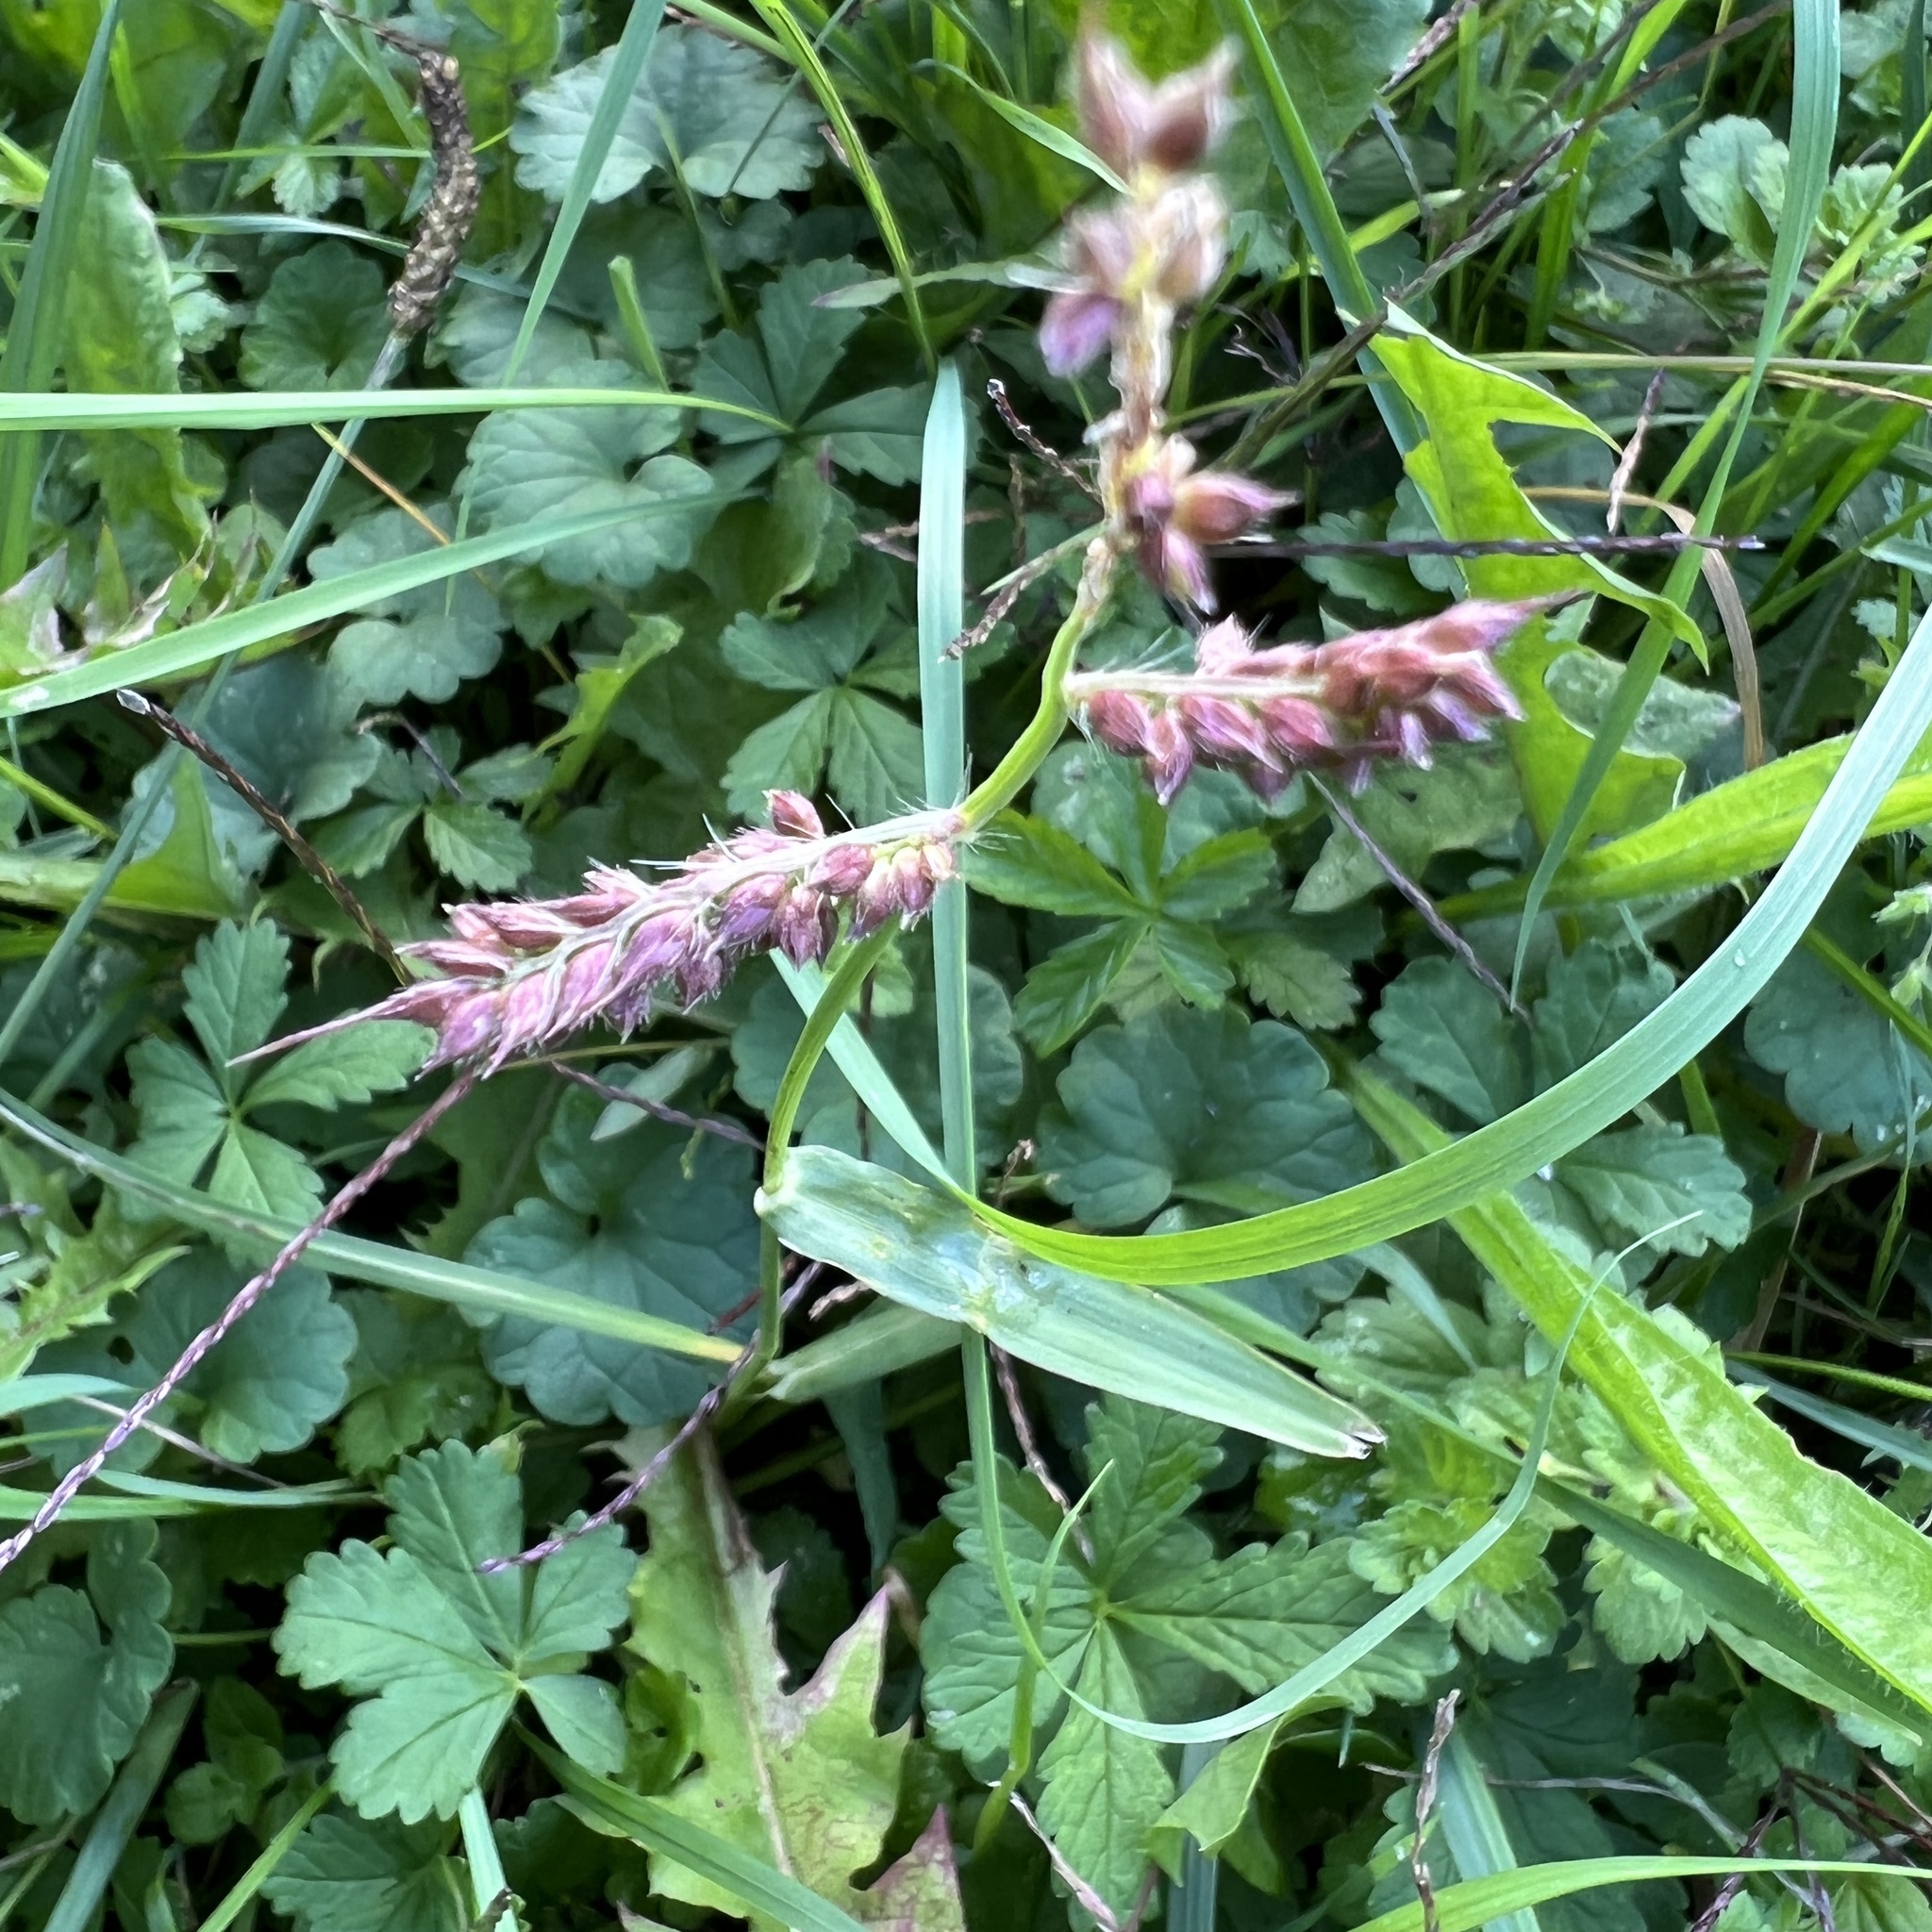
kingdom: Plantae
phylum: Tracheophyta
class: Liliopsida
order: Poales
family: Poaceae
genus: Echinochloa
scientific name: Echinochloa crus-galli
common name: Cockspur
